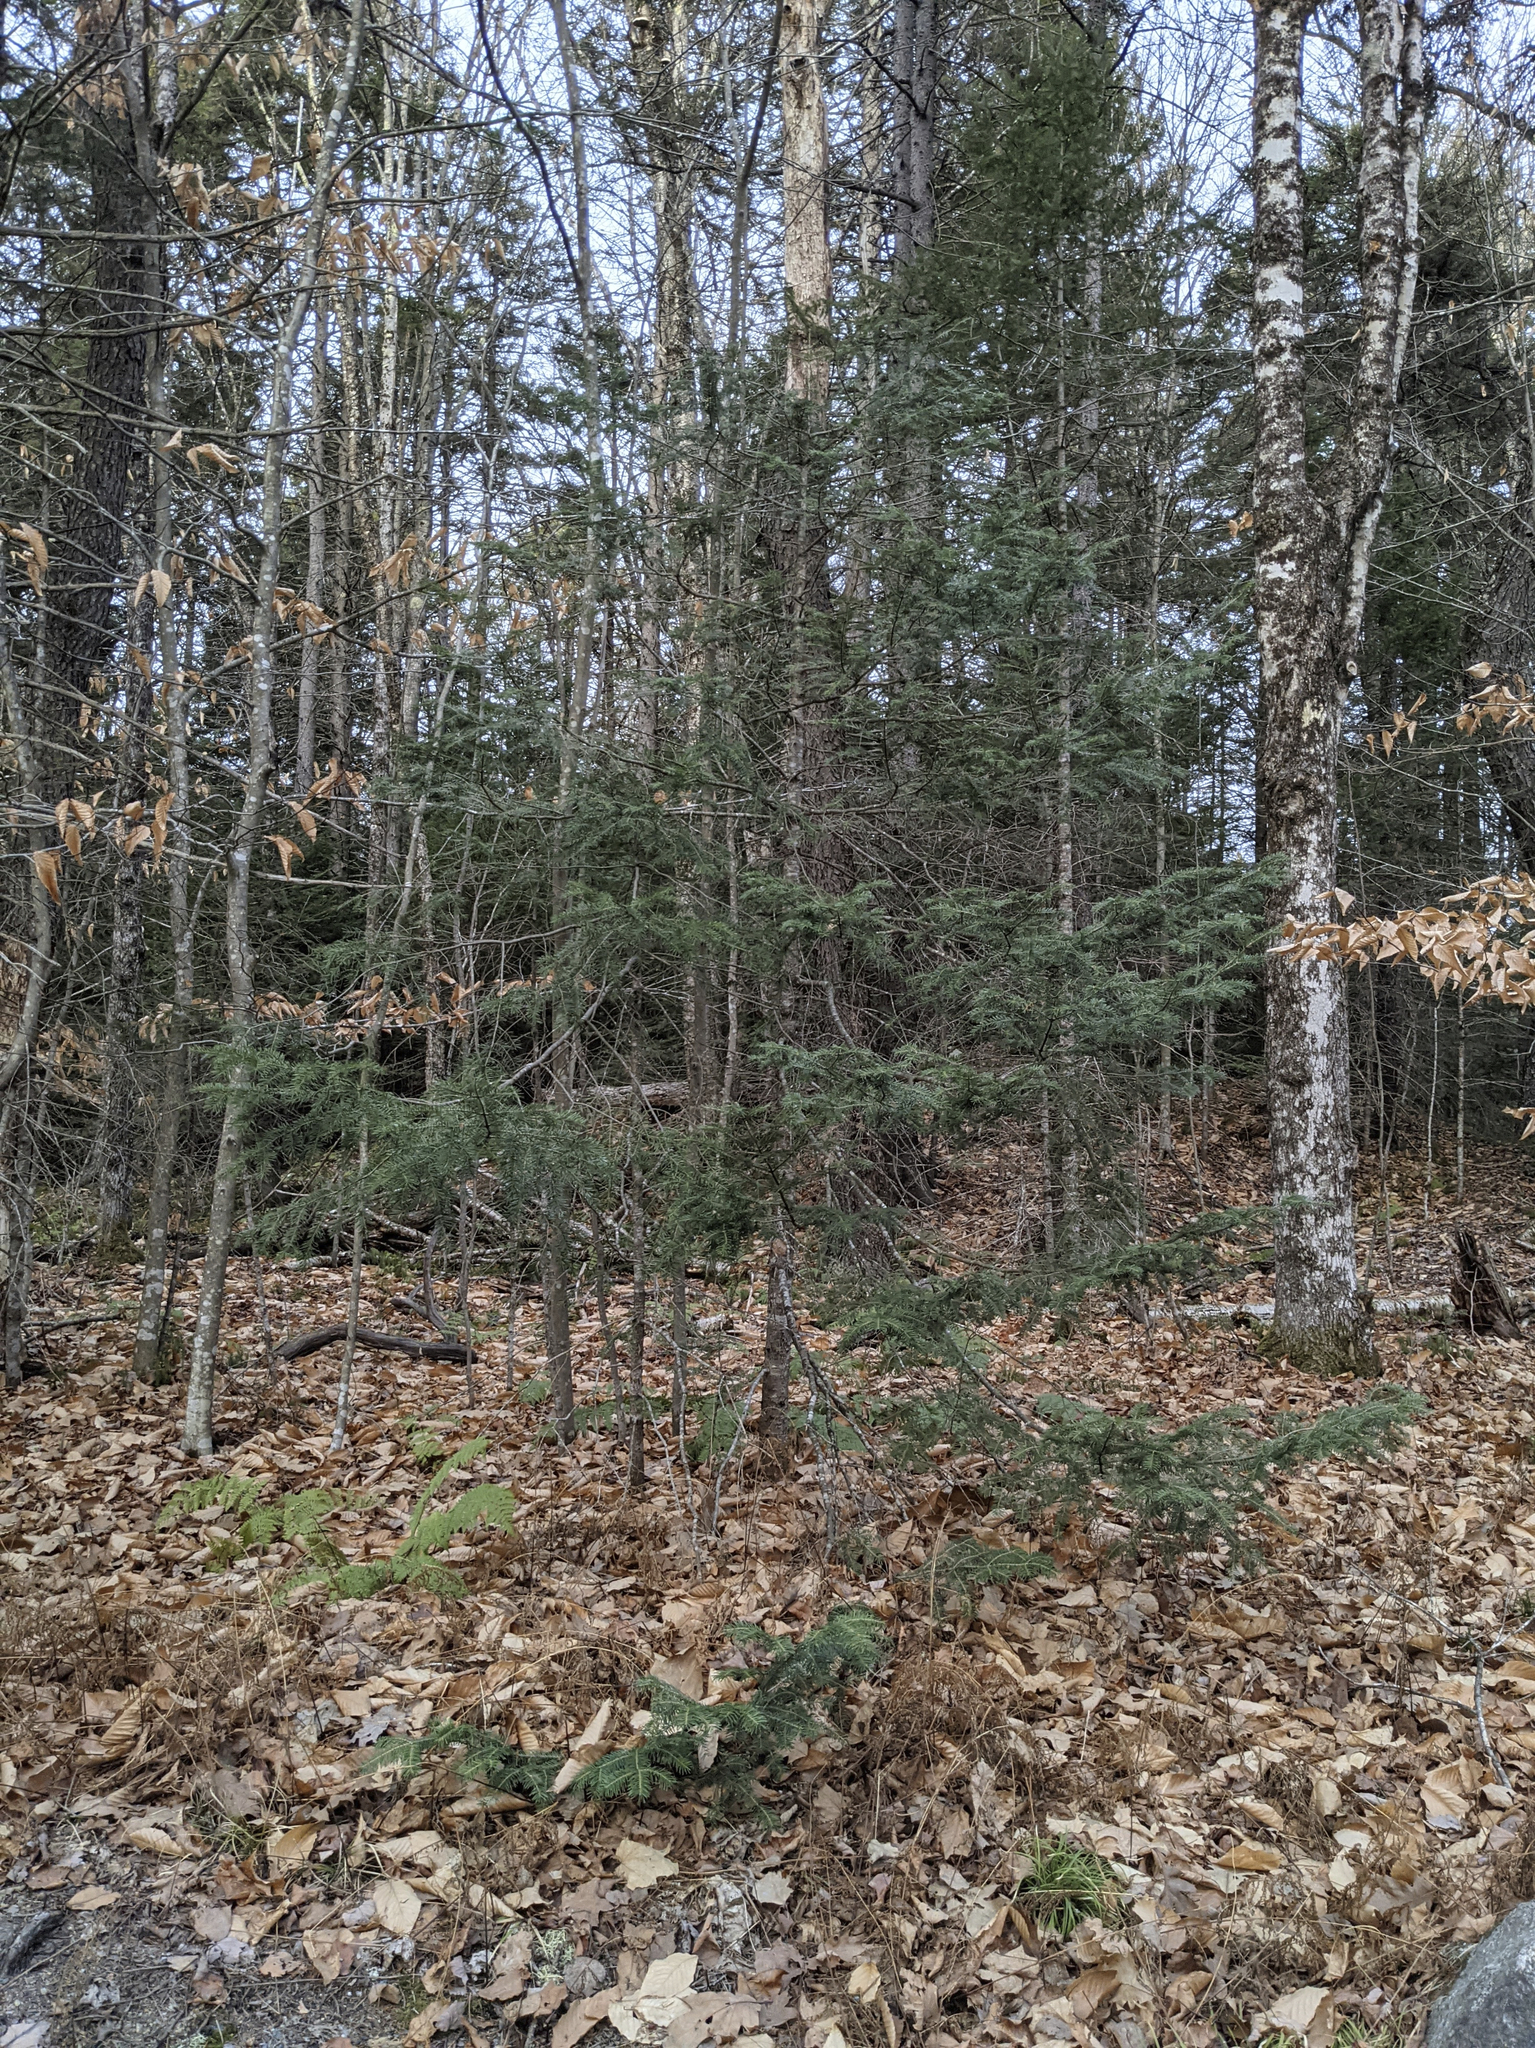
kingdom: Plantae
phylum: Tracheophyta
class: Pinopsida
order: Pinales
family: Pinaceae
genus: Abies
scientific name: Abies balsamea
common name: Balsam fir
